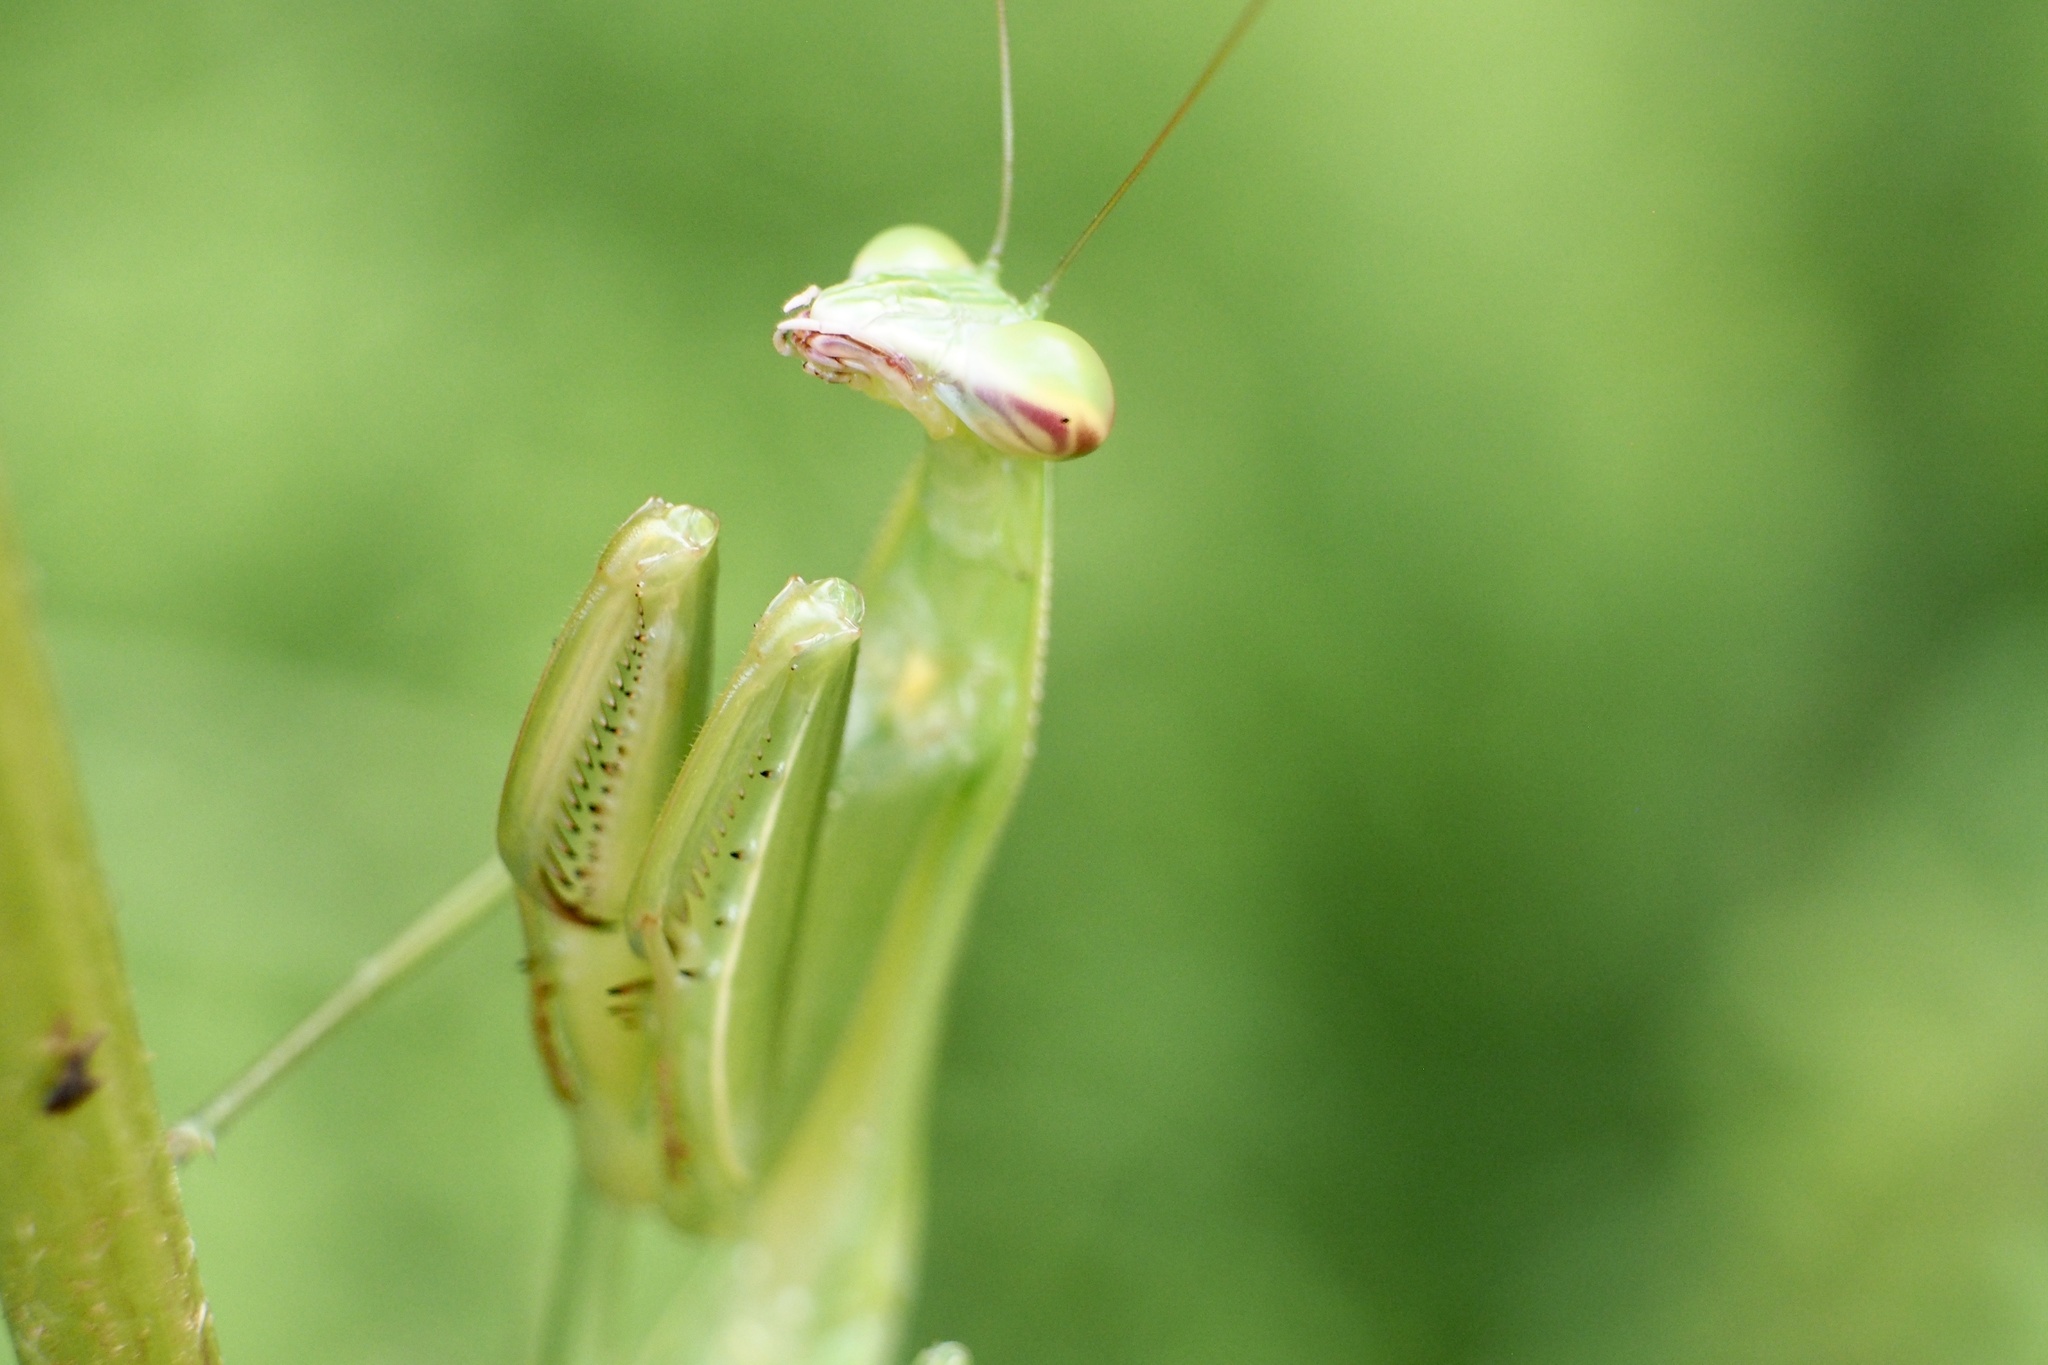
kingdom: Animalia
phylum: Arthropoda
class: Insecta
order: Mantodea
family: Mantidae
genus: Tenodera
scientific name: Tenodera sinensis
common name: Chinese mantis
